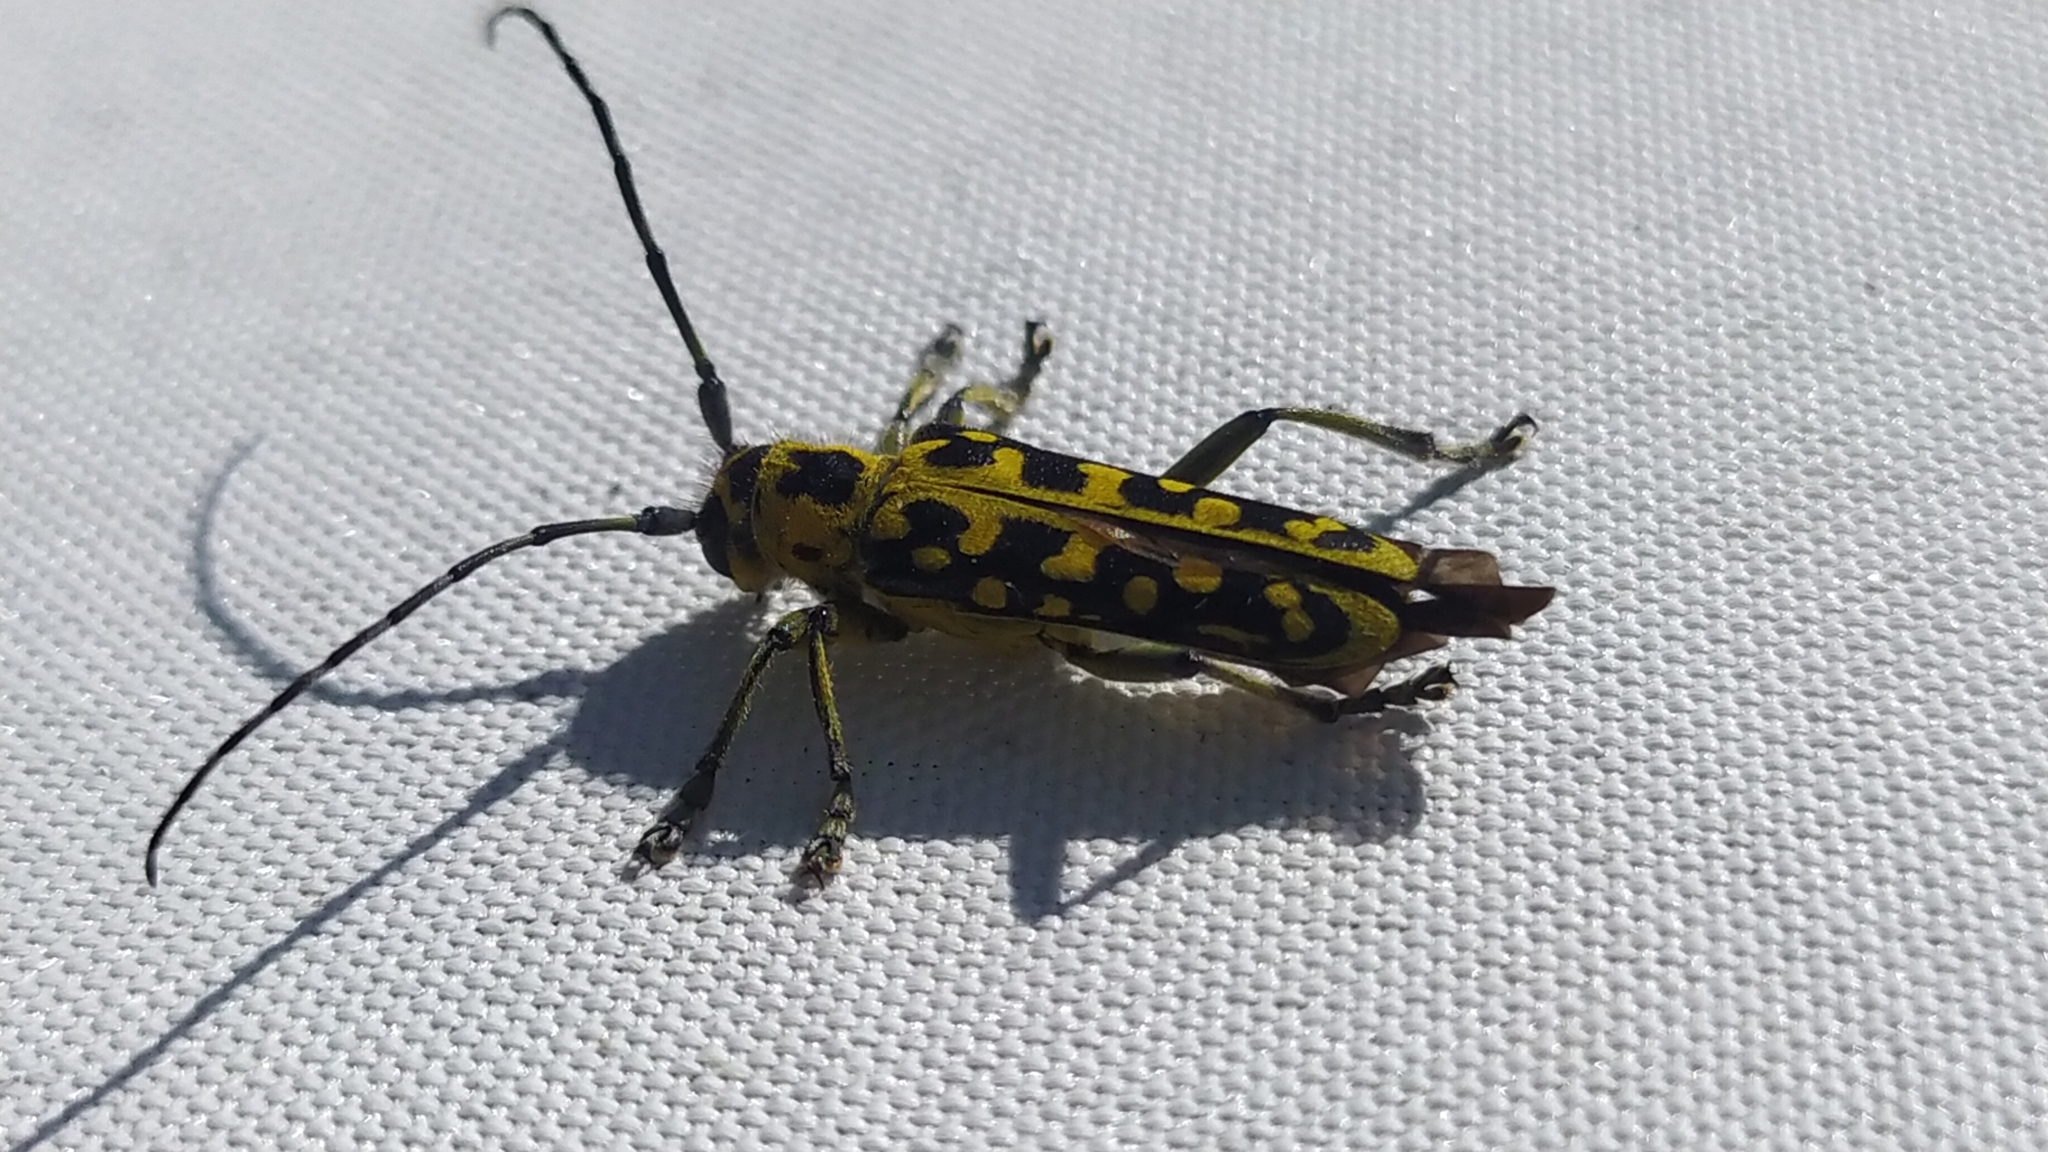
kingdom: Animalia
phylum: Arthropoda
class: Insecta
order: Coleoptera
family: Cerambycidae
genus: Saperda
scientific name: Saperda scalaris
